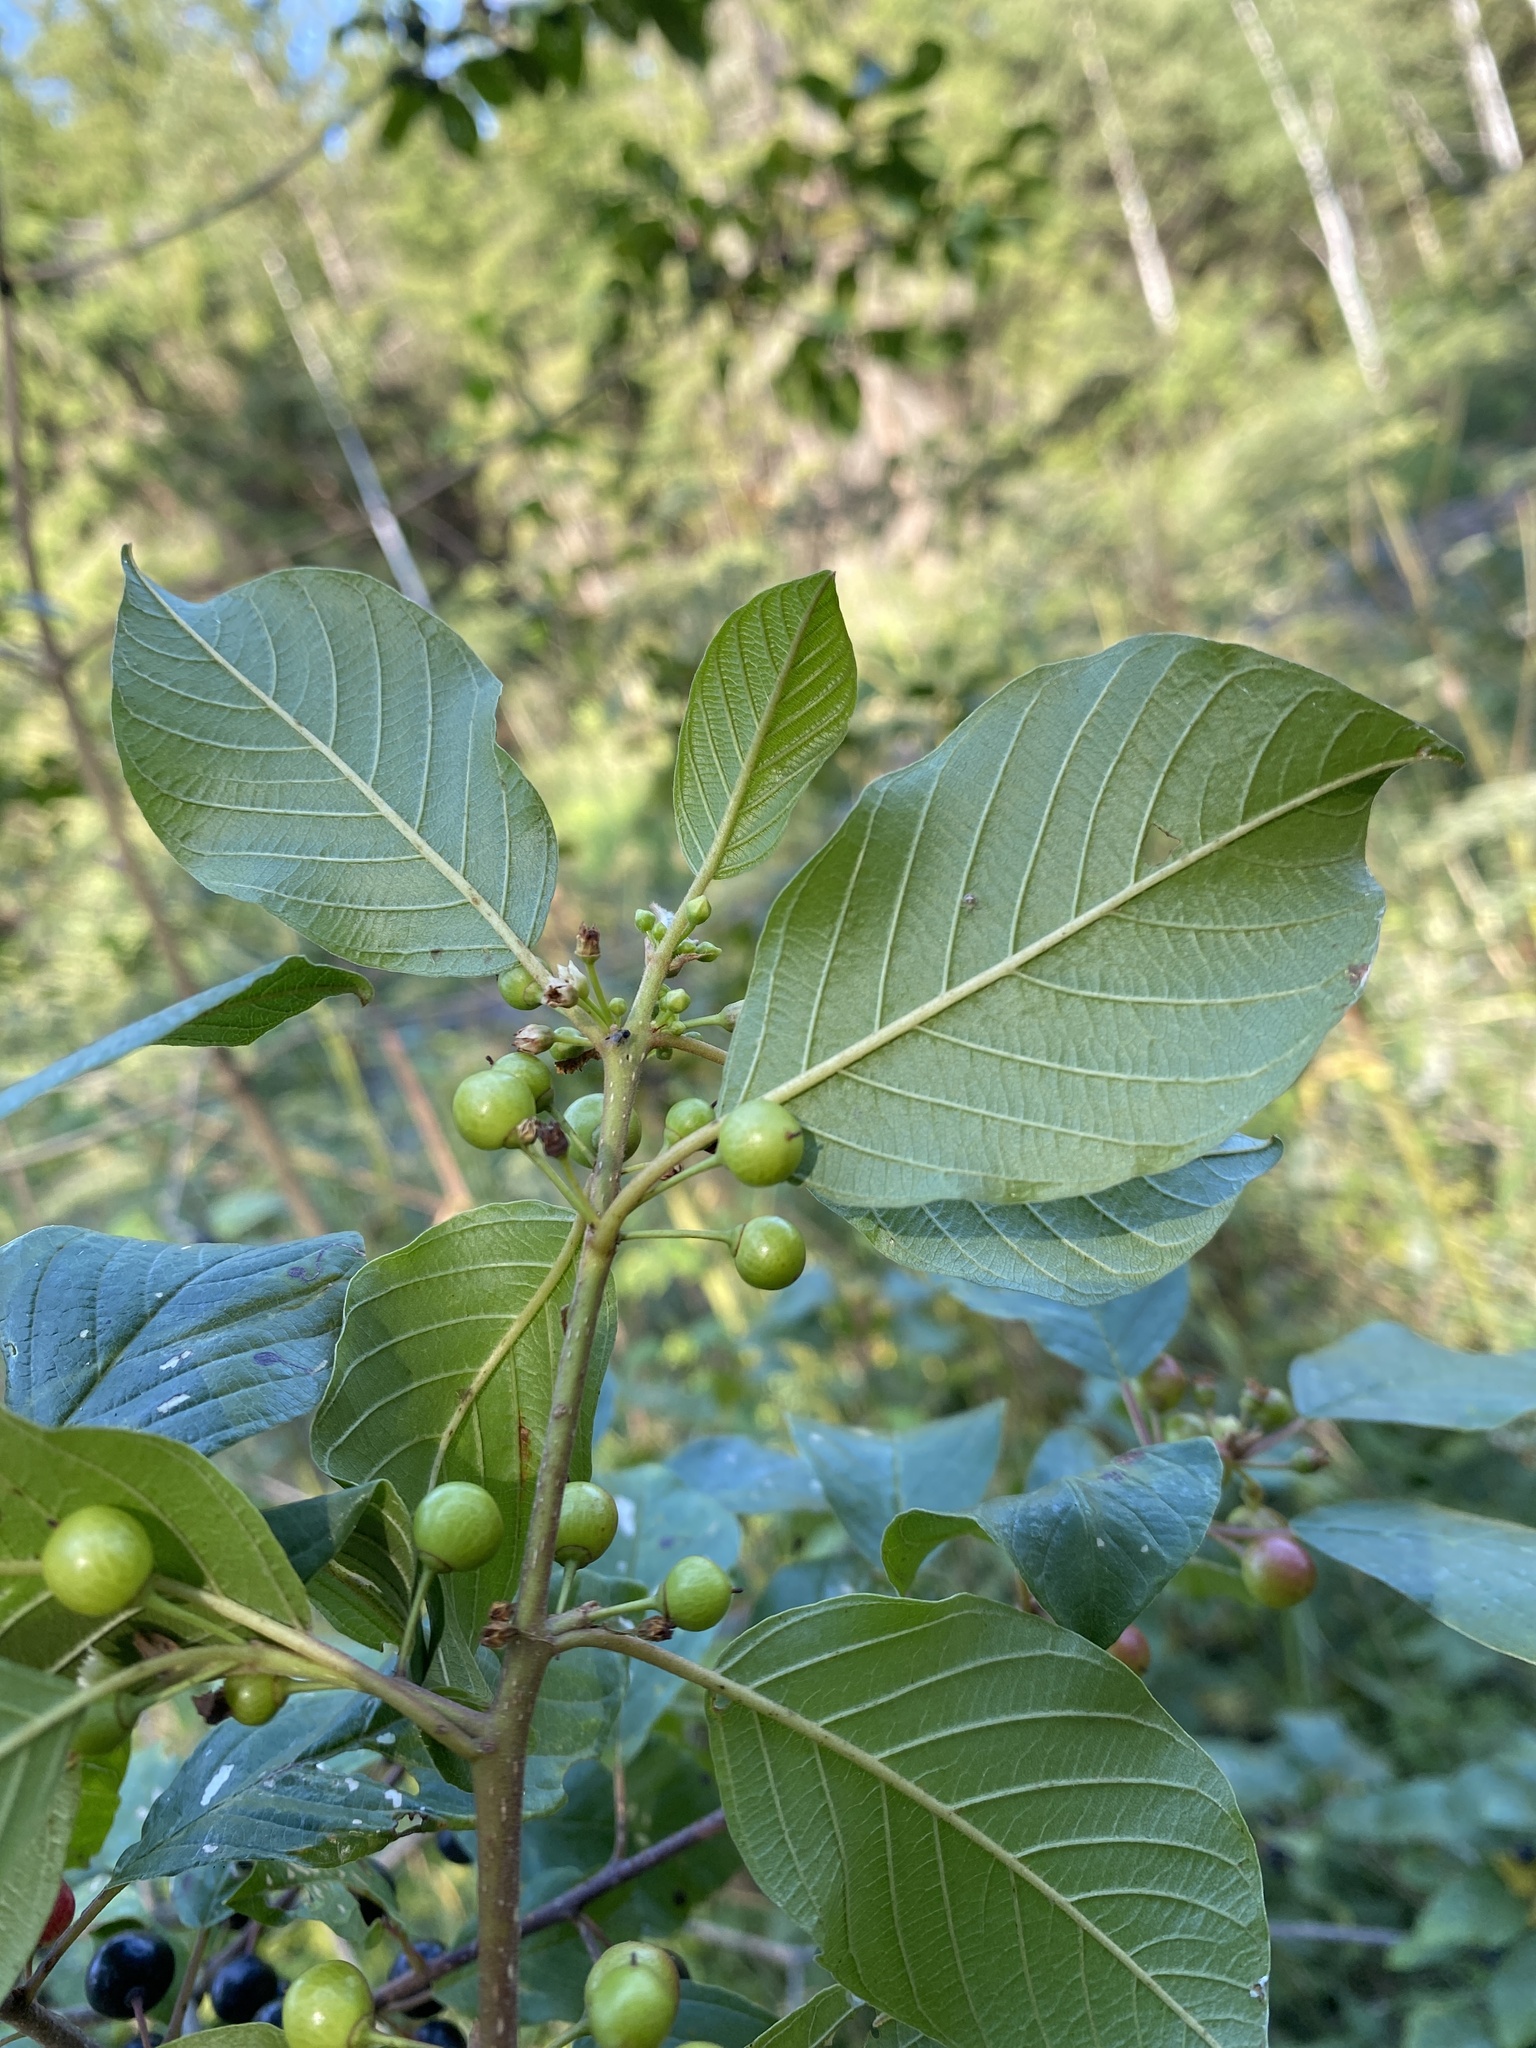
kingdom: Plantae
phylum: Tracheophyta
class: Magnoliopsida
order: Rosales
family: Rhamnaceae
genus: Frangula
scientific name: Frangula alnus
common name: Alder buckthorn
